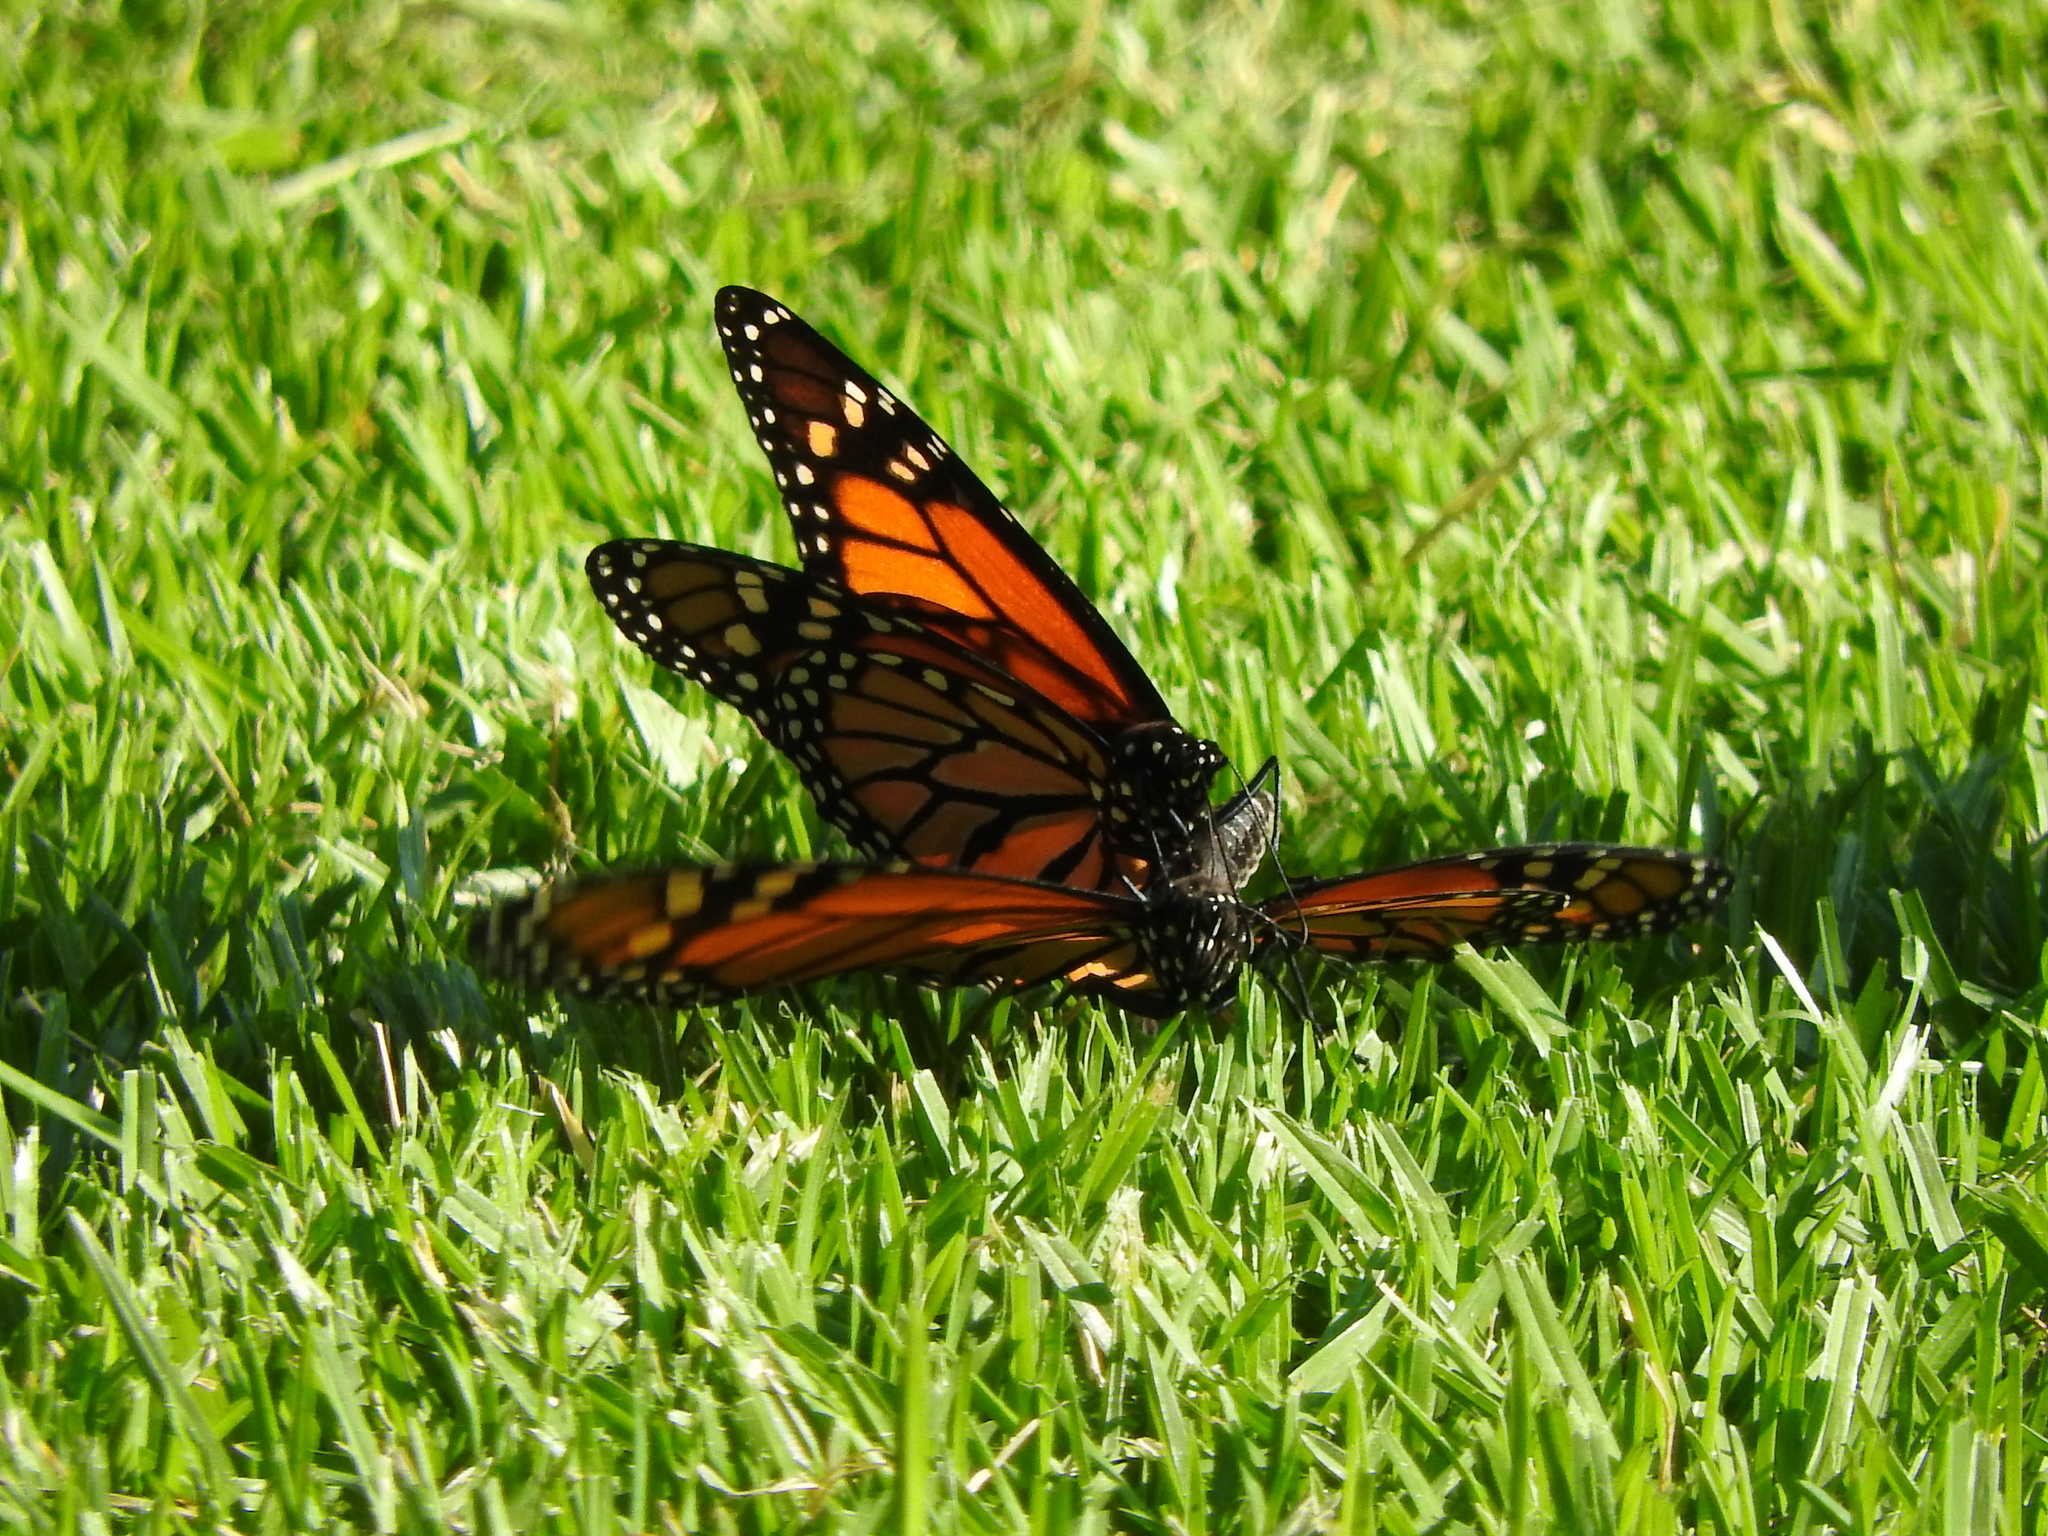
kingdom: Animalia
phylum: Arthropoda
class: Insecta
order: Lepidoptera
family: Nymphalidae
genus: Danaus
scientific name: Danaus plexippus
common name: Monarch
